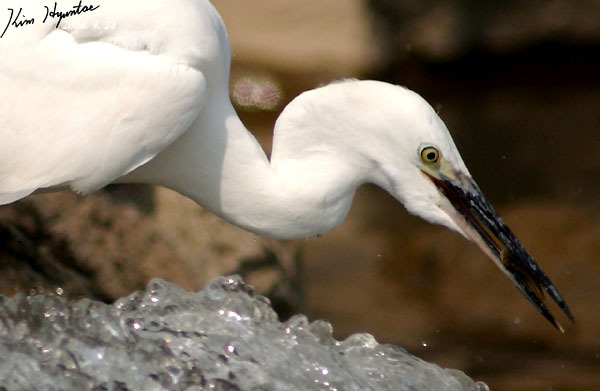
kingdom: Animalia
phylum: Chordata
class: Aves
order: Pelecaniformes
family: Ardeidae
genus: Egretta
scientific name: Egretta garzetta
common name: Little egret
